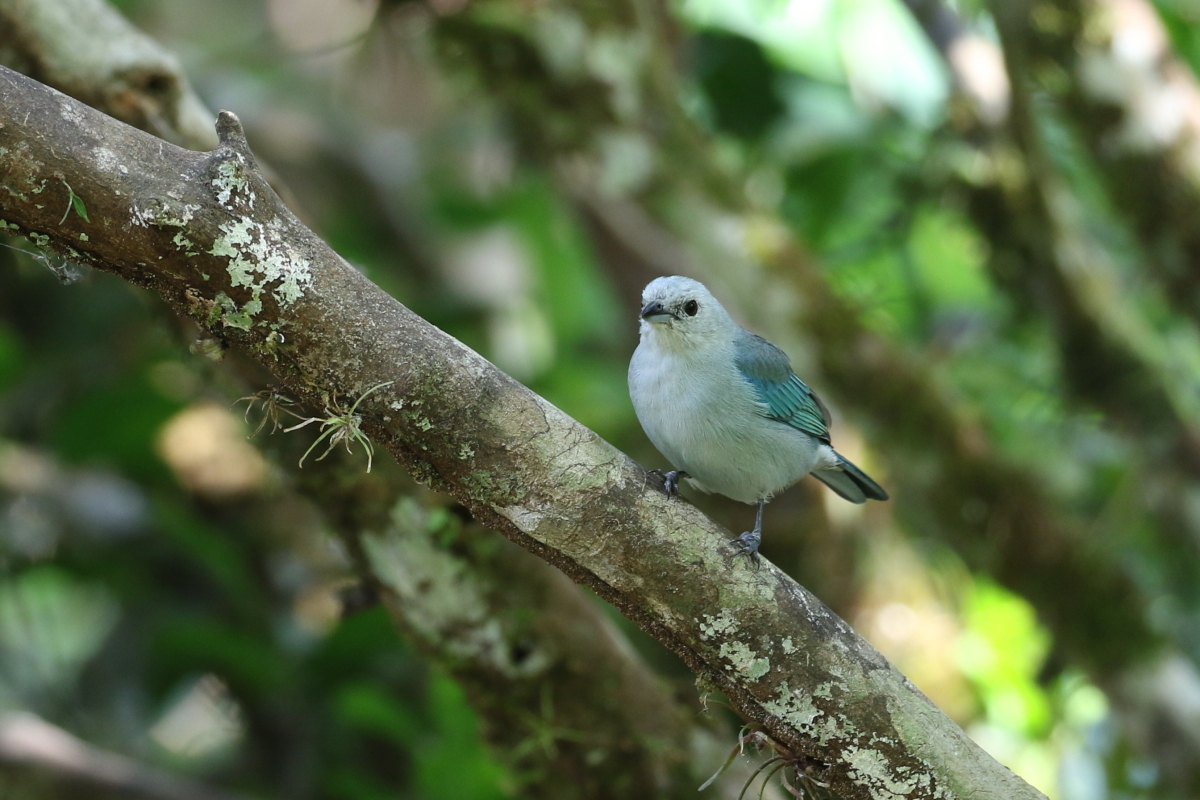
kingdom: Animalia
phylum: Chordata
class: Aves
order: Passeriformes
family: Thraupidae
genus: Thraupis
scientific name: Thraupis episcopus
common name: Blue-grey tanager
